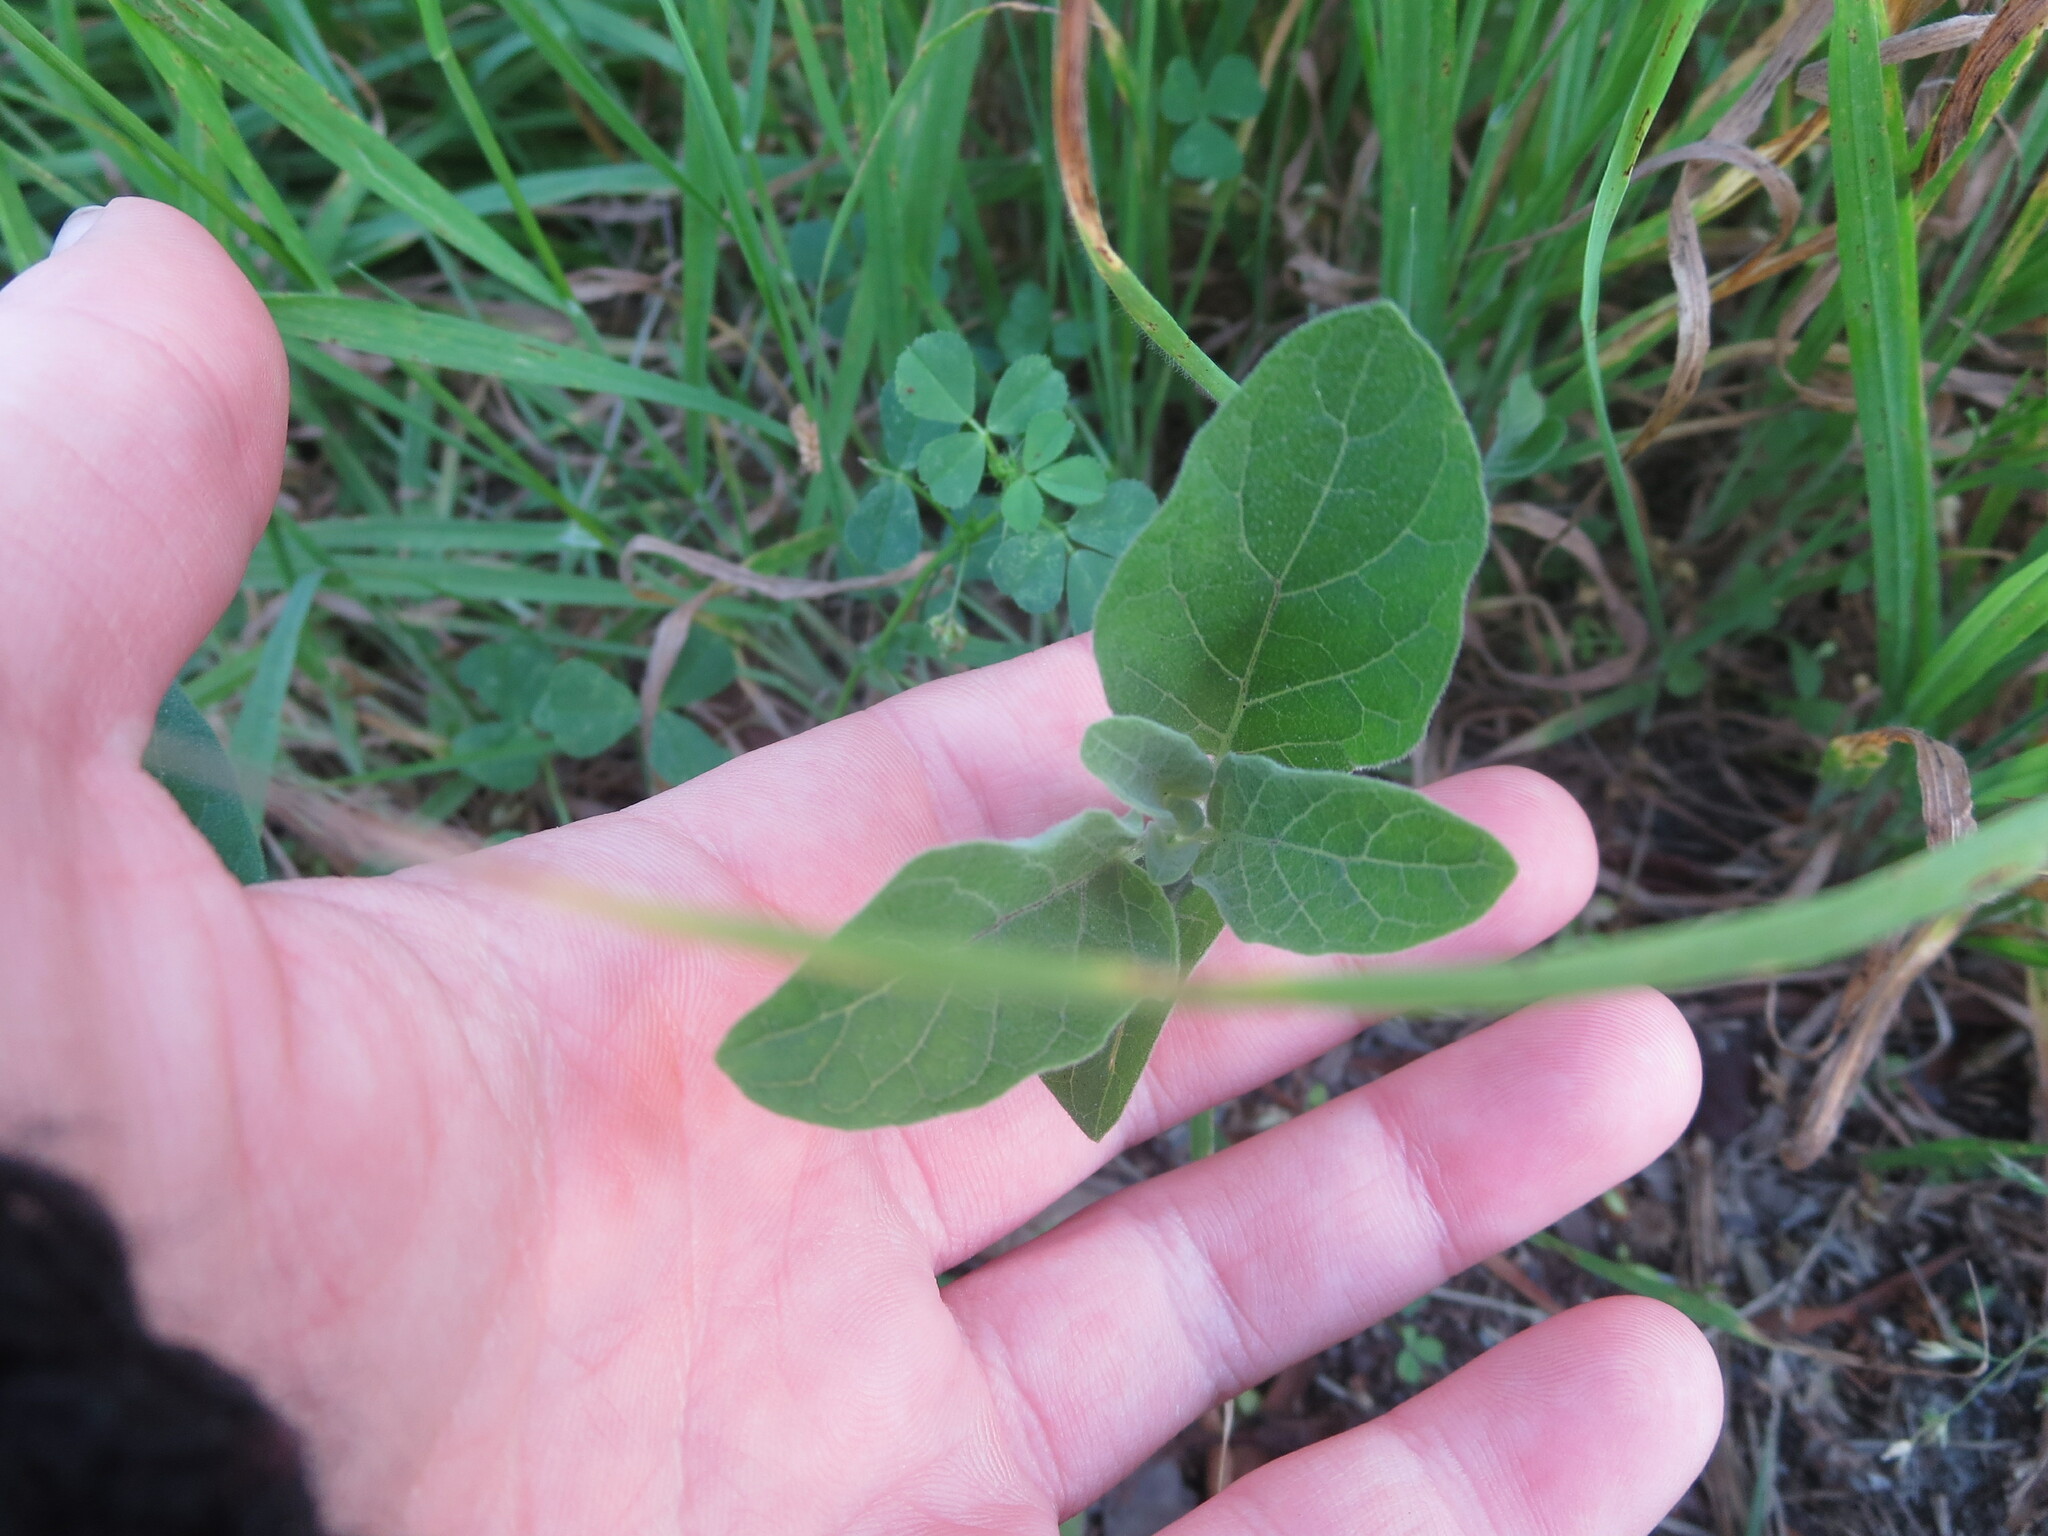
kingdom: Plantae
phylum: Tracheophyta
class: Magnoliopsida
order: Solanales
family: Solanaceae
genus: Physalis
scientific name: Physalis walteri
